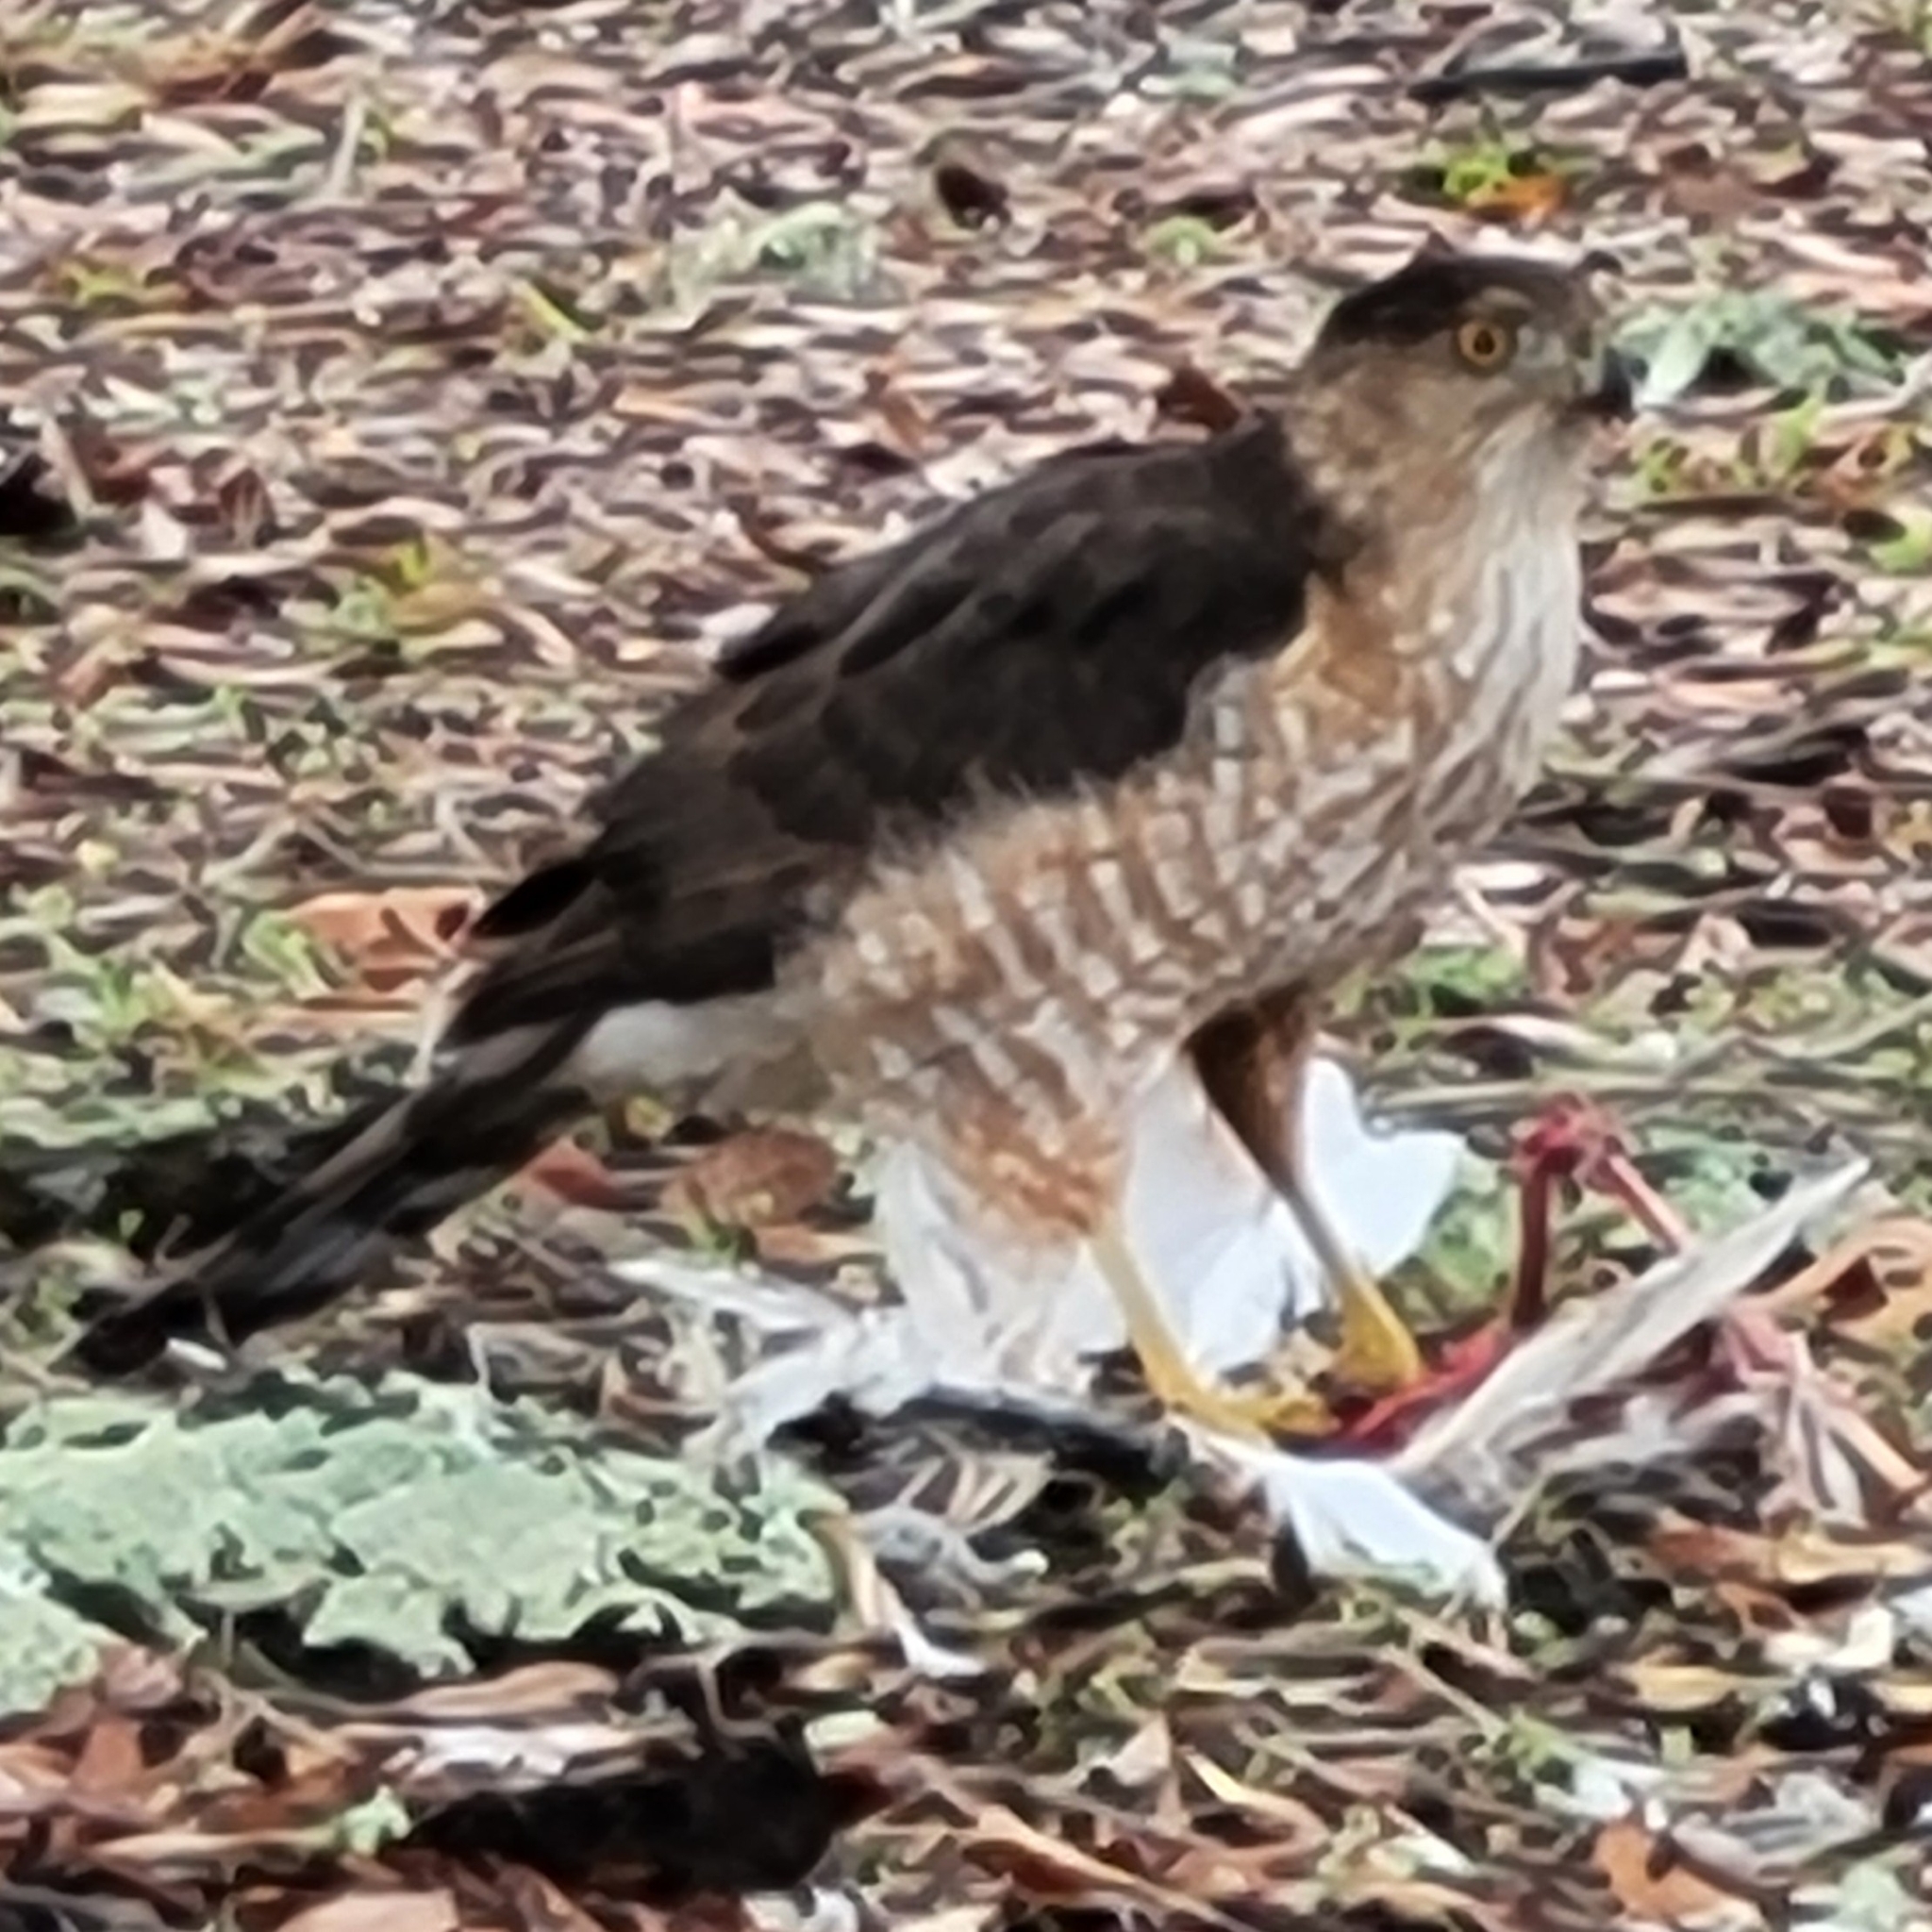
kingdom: Animalia
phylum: Chordata
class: Aves
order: Accipitriformes
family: Accipitridae
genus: Accipiter
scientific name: Accipiter cooperii
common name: Cooper's hawk
